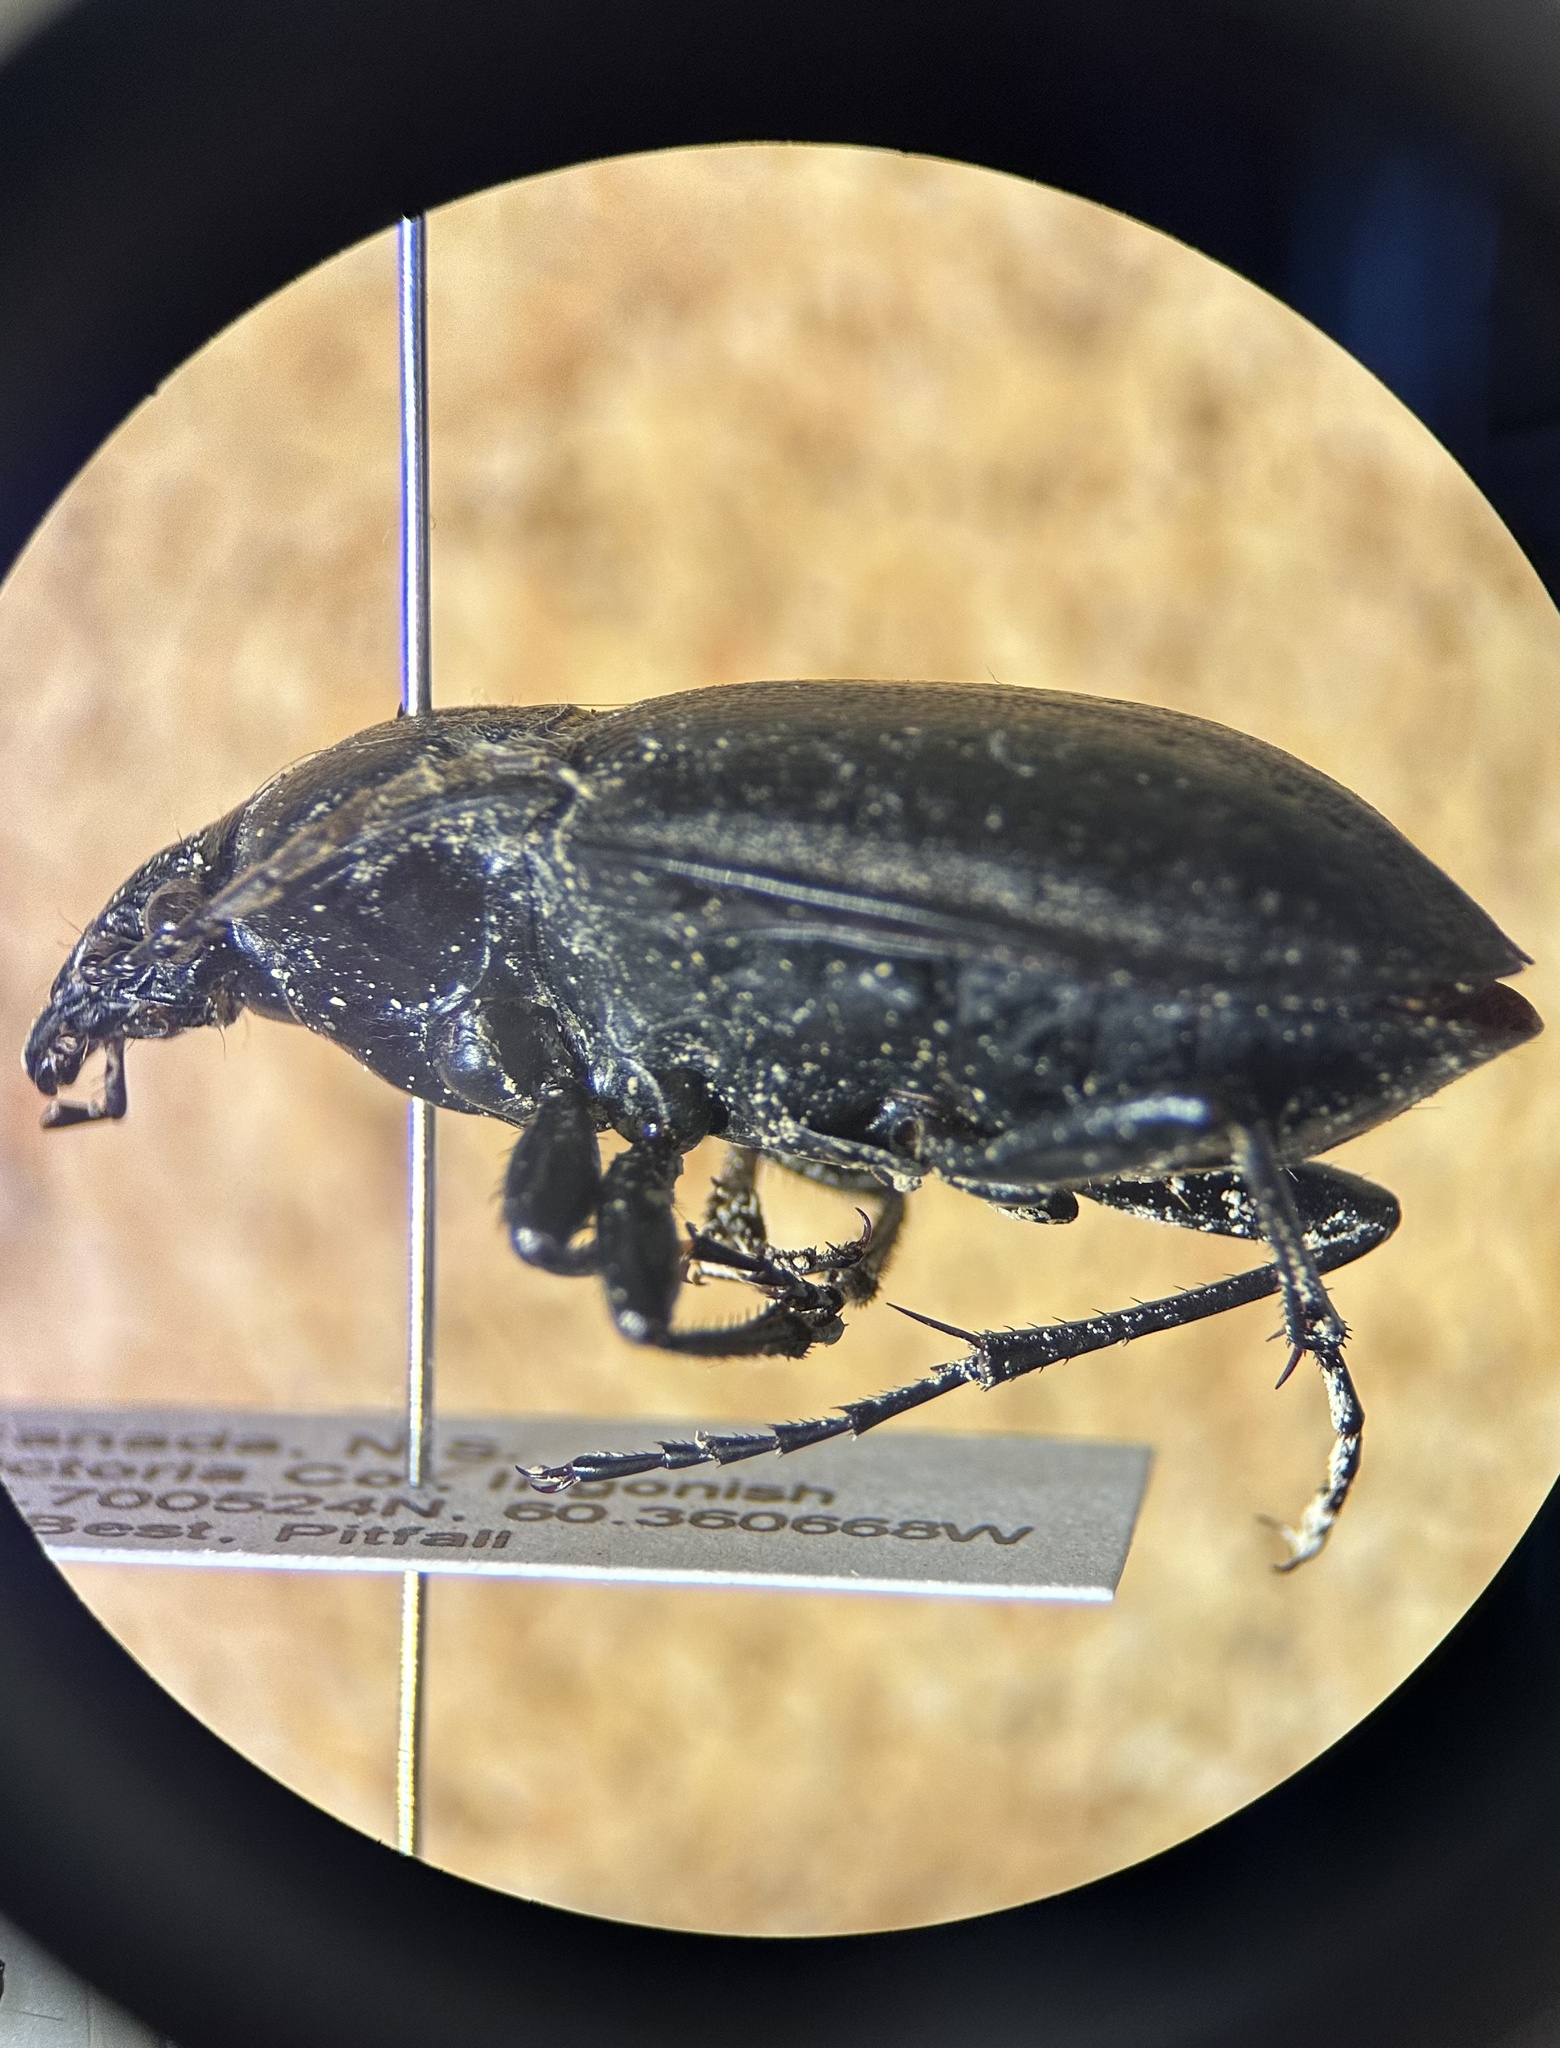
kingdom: Animalia
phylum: Arthropoda
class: Insecta
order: Coleoptera
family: Carabidae
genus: Carabus
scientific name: Carabus nemoralis
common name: European ground beetle
